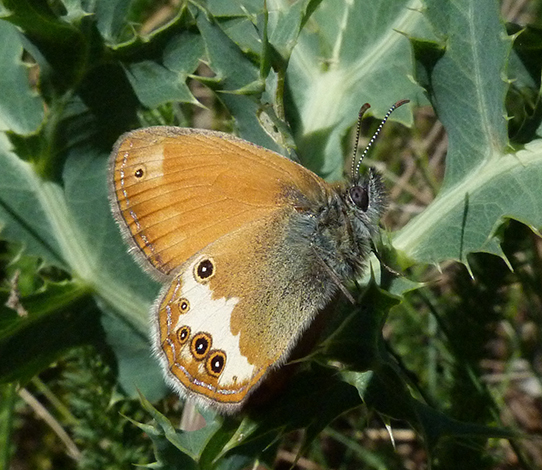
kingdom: Animalia
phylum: Arthropoda
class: Insecta
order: Lepidoptera
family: Nymphalidae
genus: Coenonympha
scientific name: Coenonympha arcania
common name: Pearly heath
